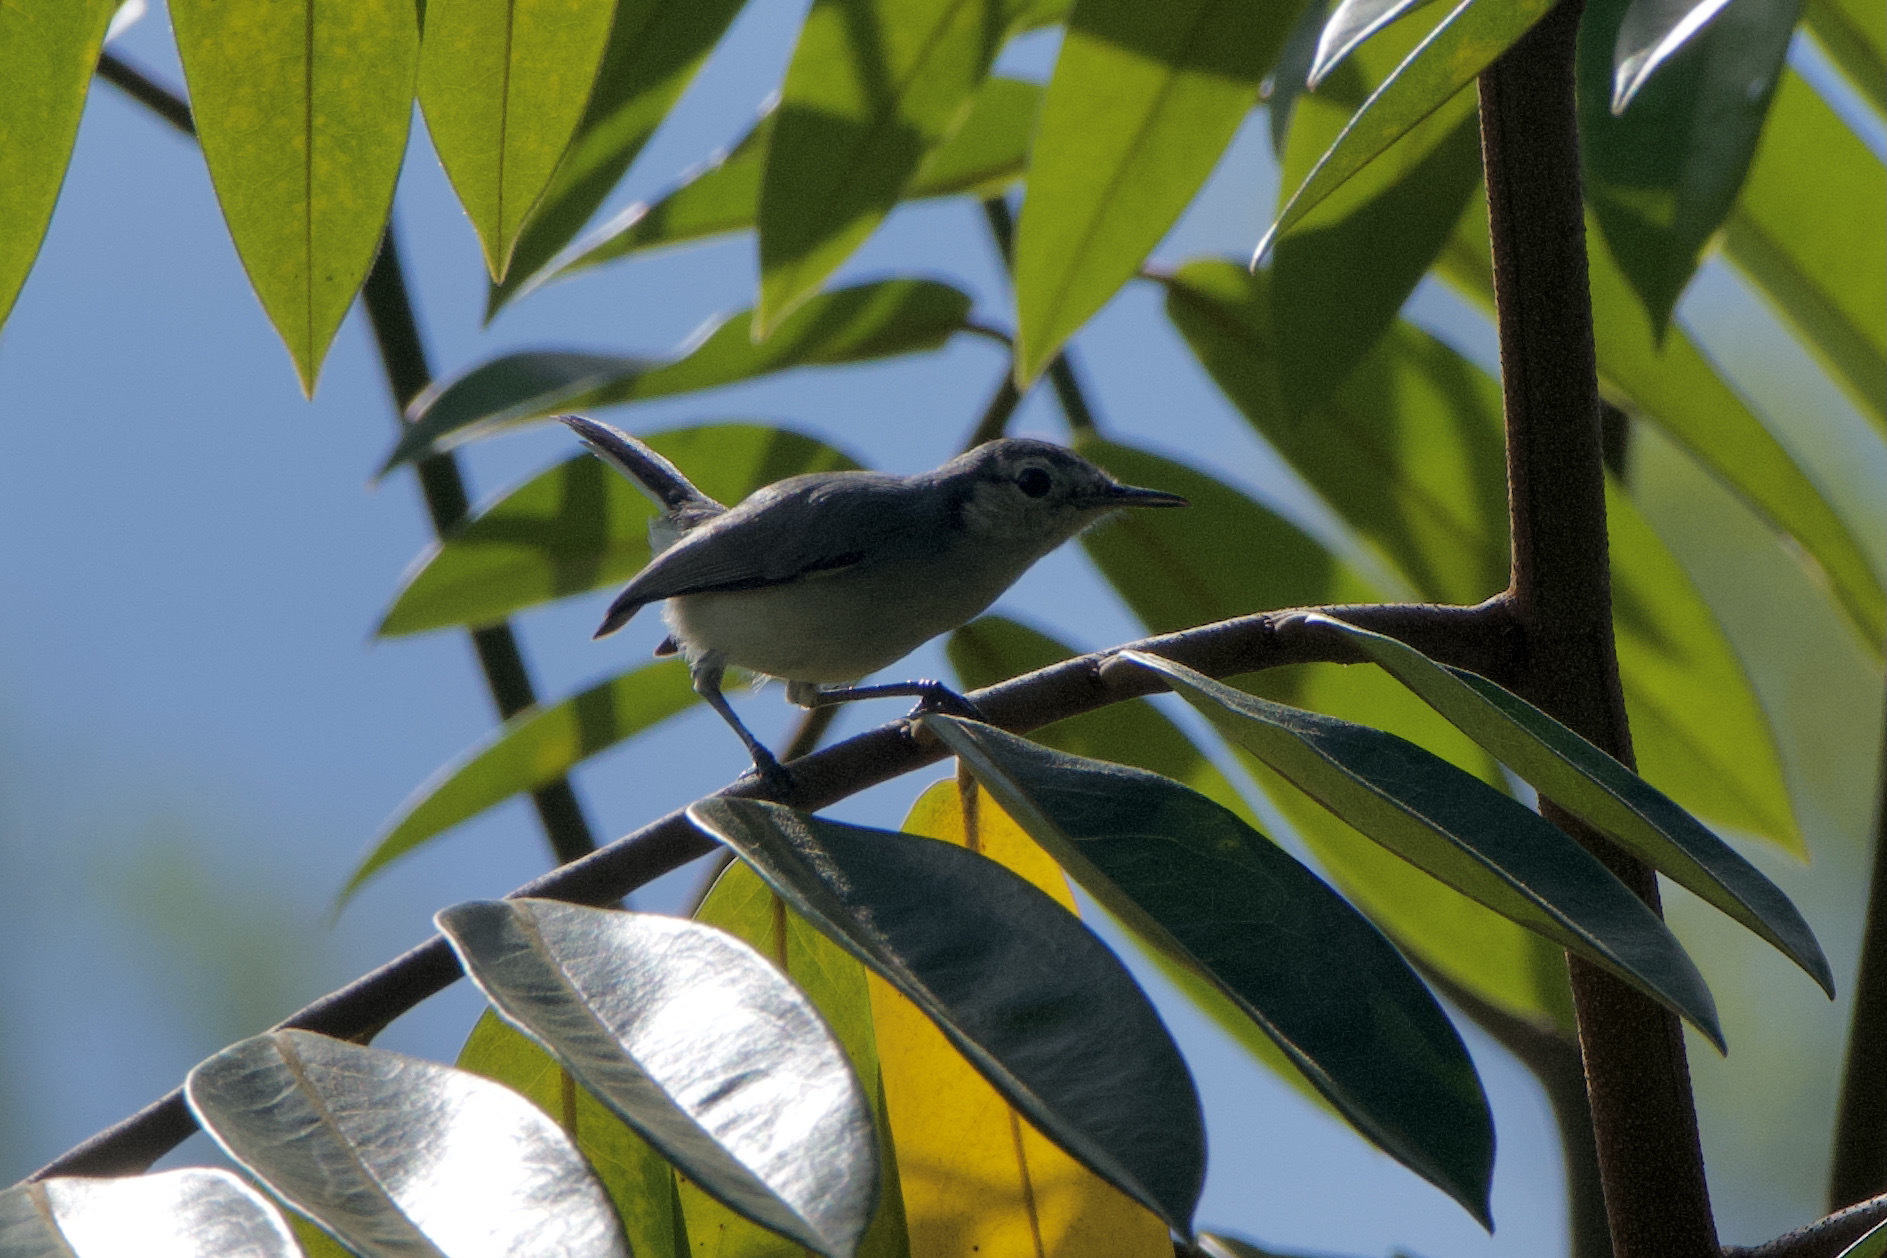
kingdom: Animalia
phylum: Chordata
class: Aves
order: Passeriformes
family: Polioptilidae
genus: Polioptila
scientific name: Polioptila plumbea
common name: Tropical gnatcatcher
